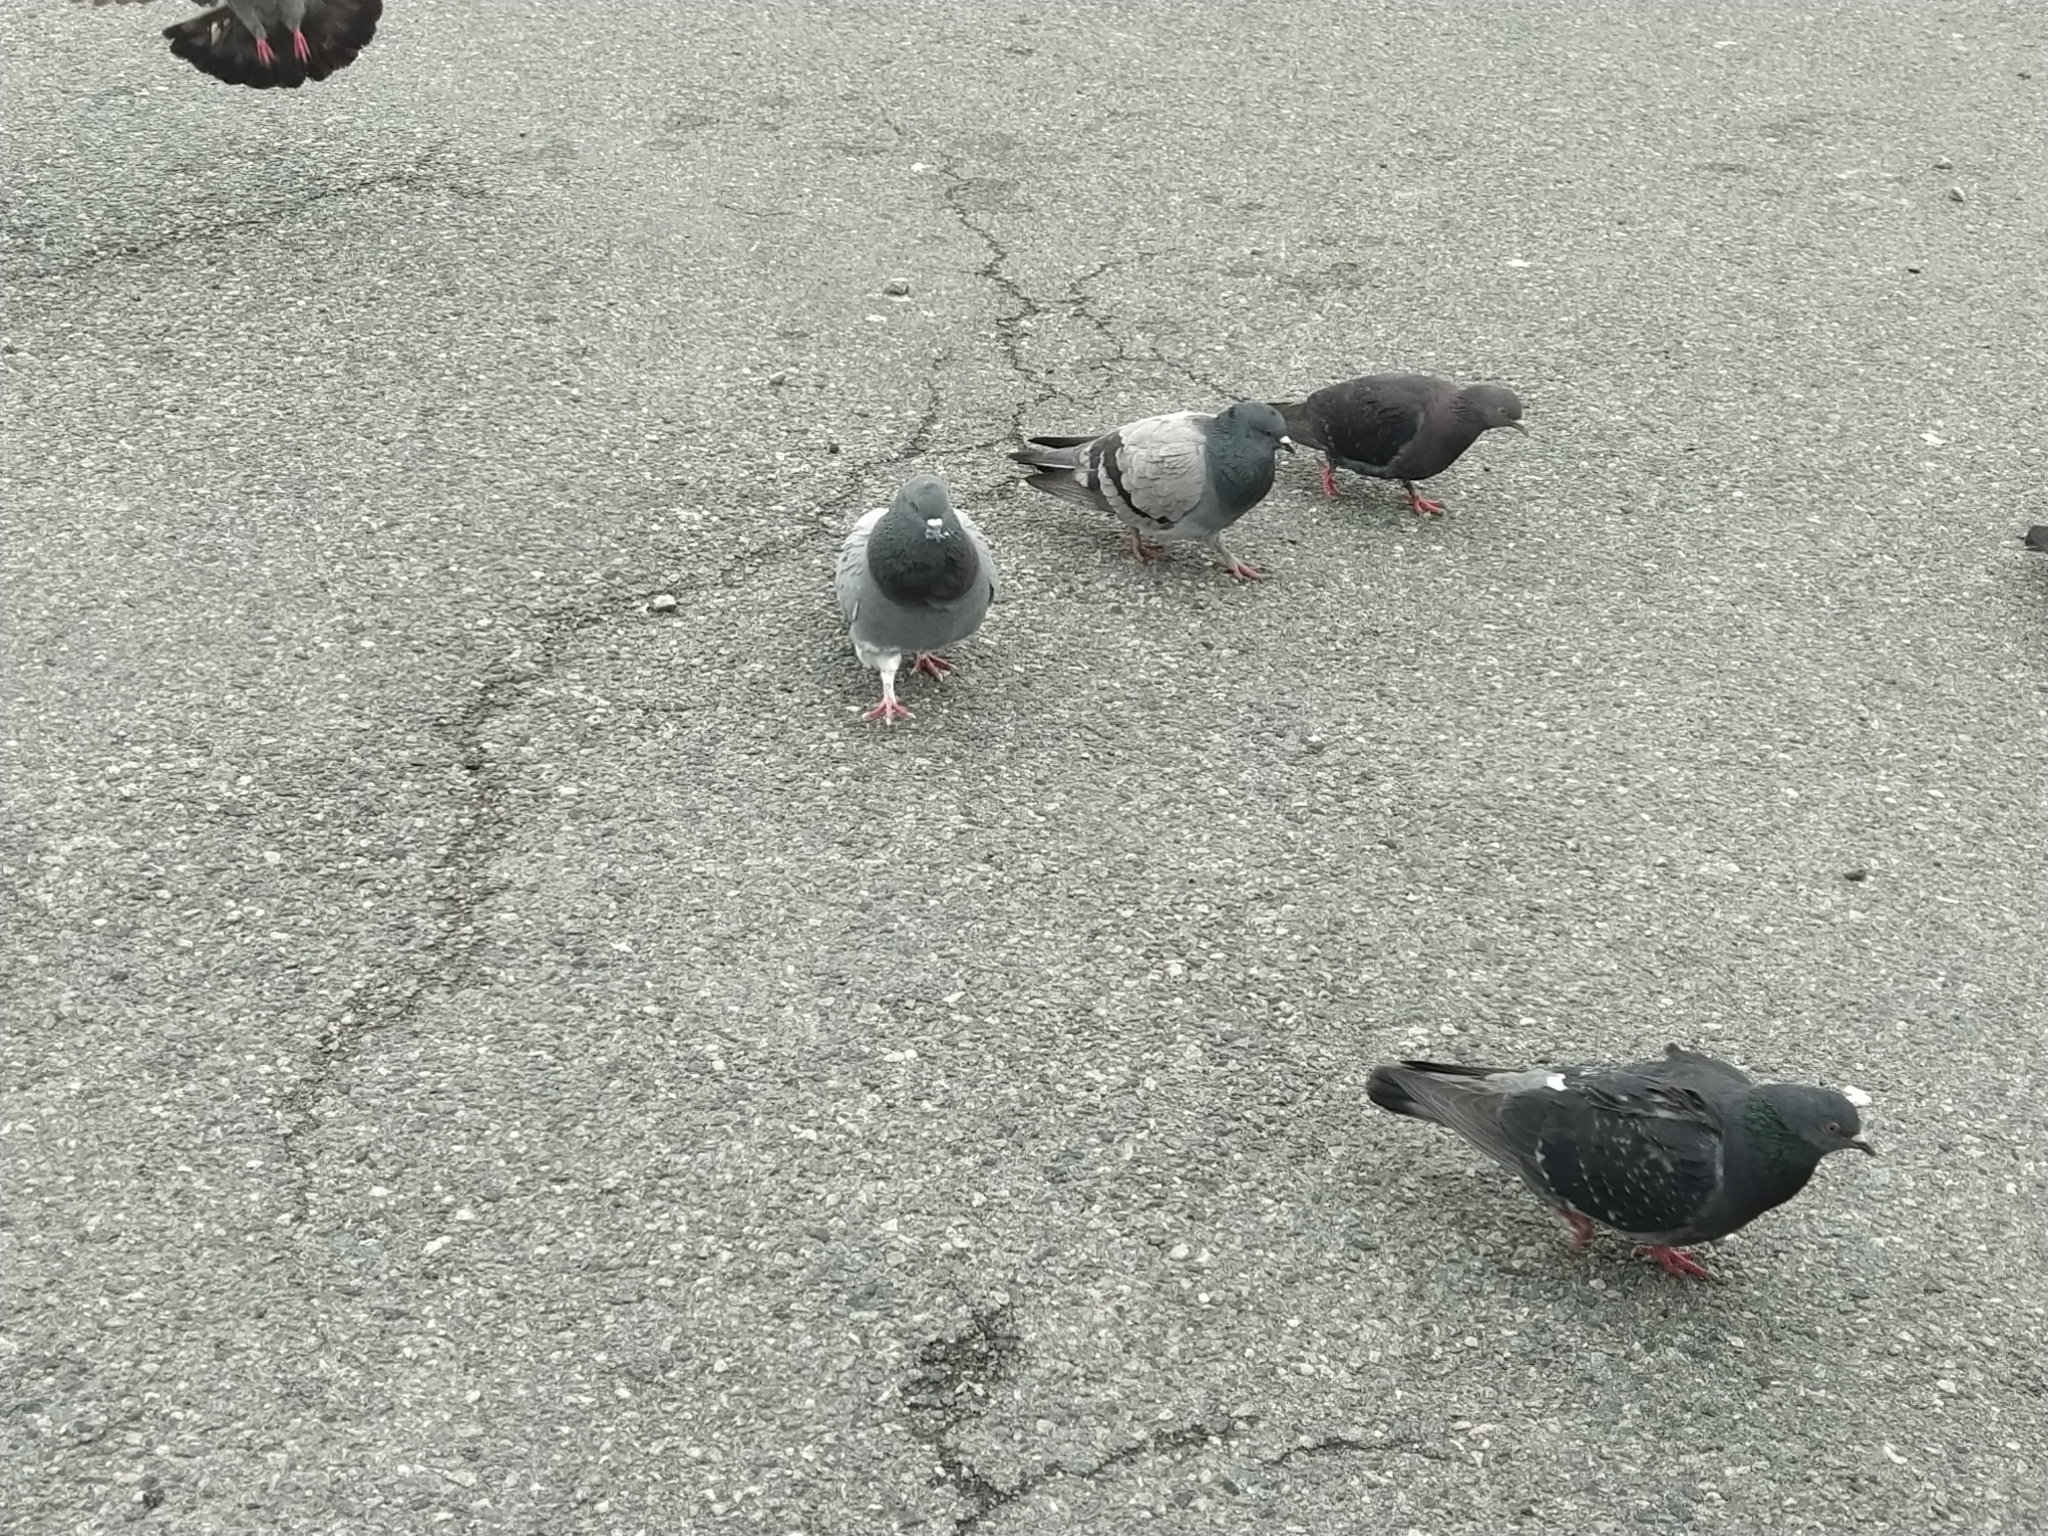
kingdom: Animalia
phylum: Chordata
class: Aves
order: Columbiformes
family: Columbidae
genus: Columba
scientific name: Columba livia
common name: Rock pigeon
